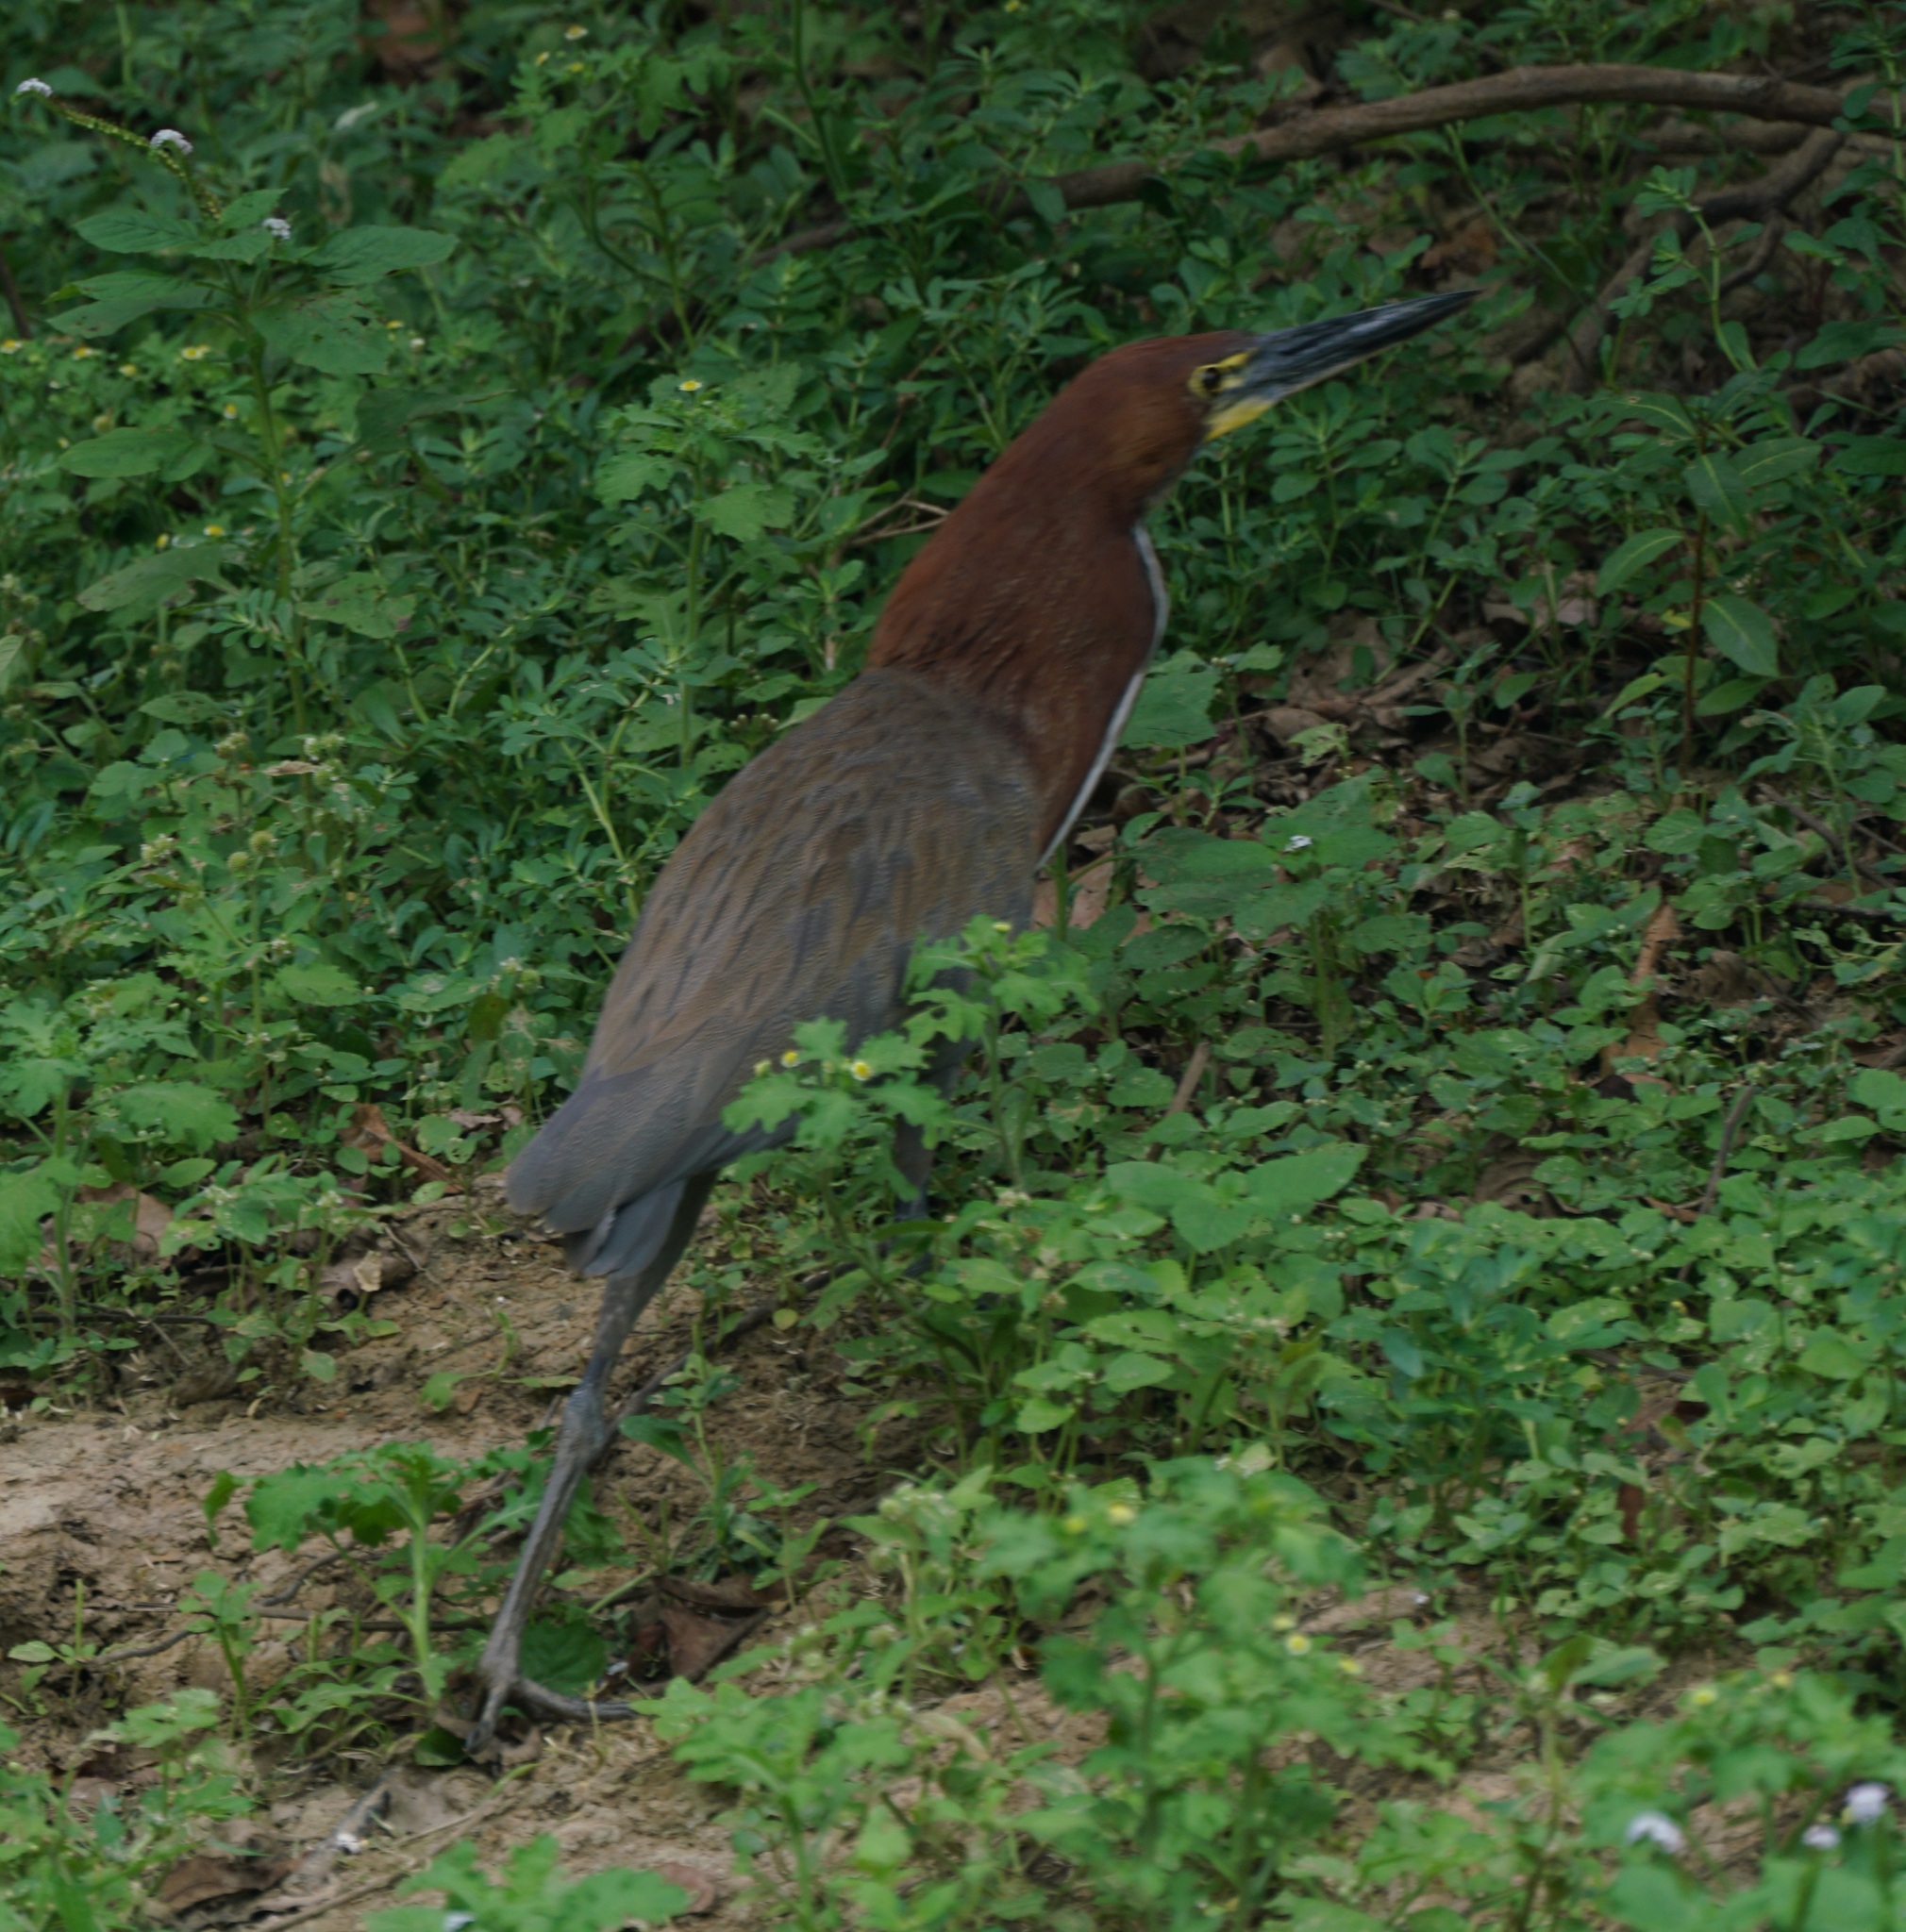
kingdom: Animalia
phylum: Chordata
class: Aves
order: Pelecaniformes
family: Ardeidae
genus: Tigrisoma
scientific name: Tigrisoma lineatum
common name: Rufescent tiger-heron
